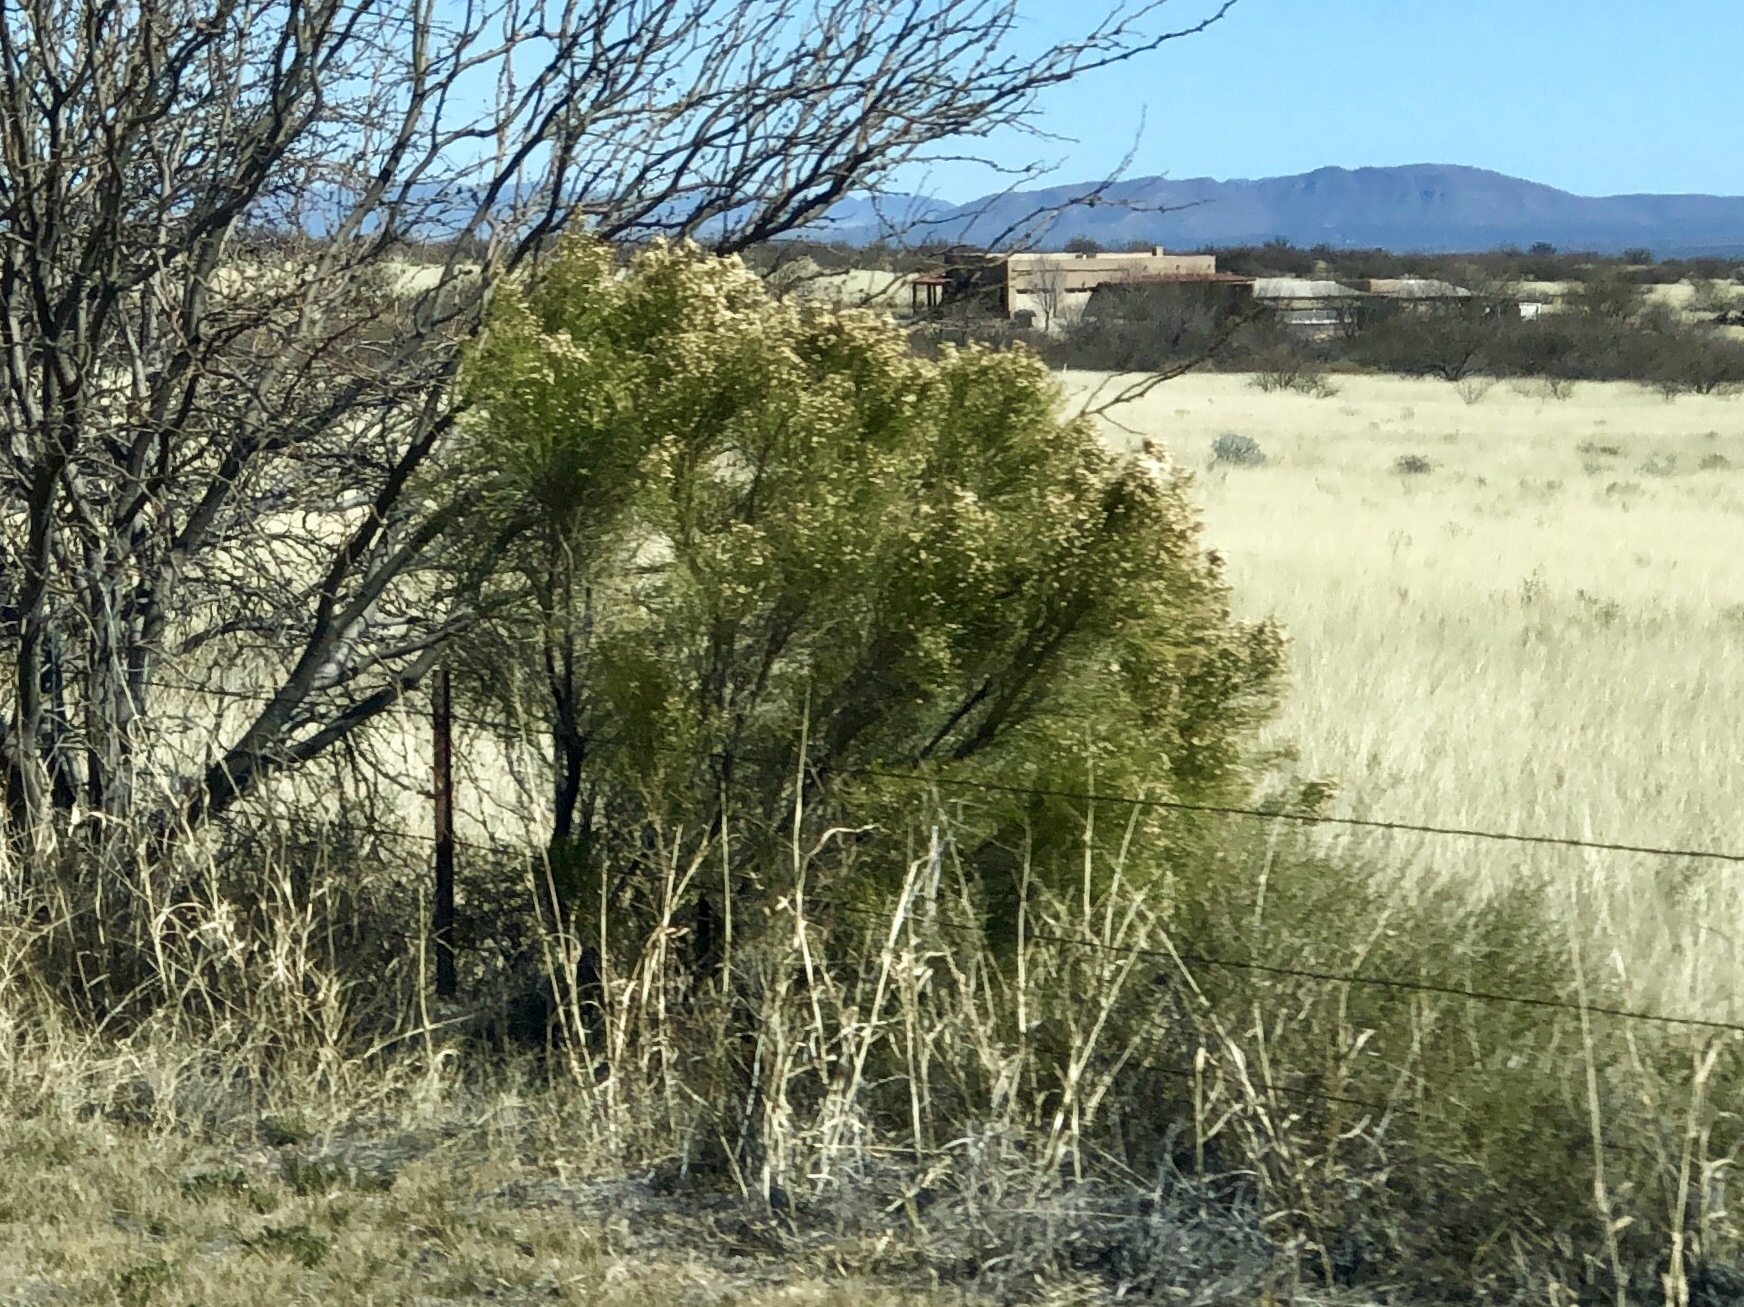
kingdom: Plantae
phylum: Tracheophyta
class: Magnoliopsida
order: Asterales
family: Asteraceae
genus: Baccharis
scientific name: Baccharis sarothroides
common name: Desert-broom
